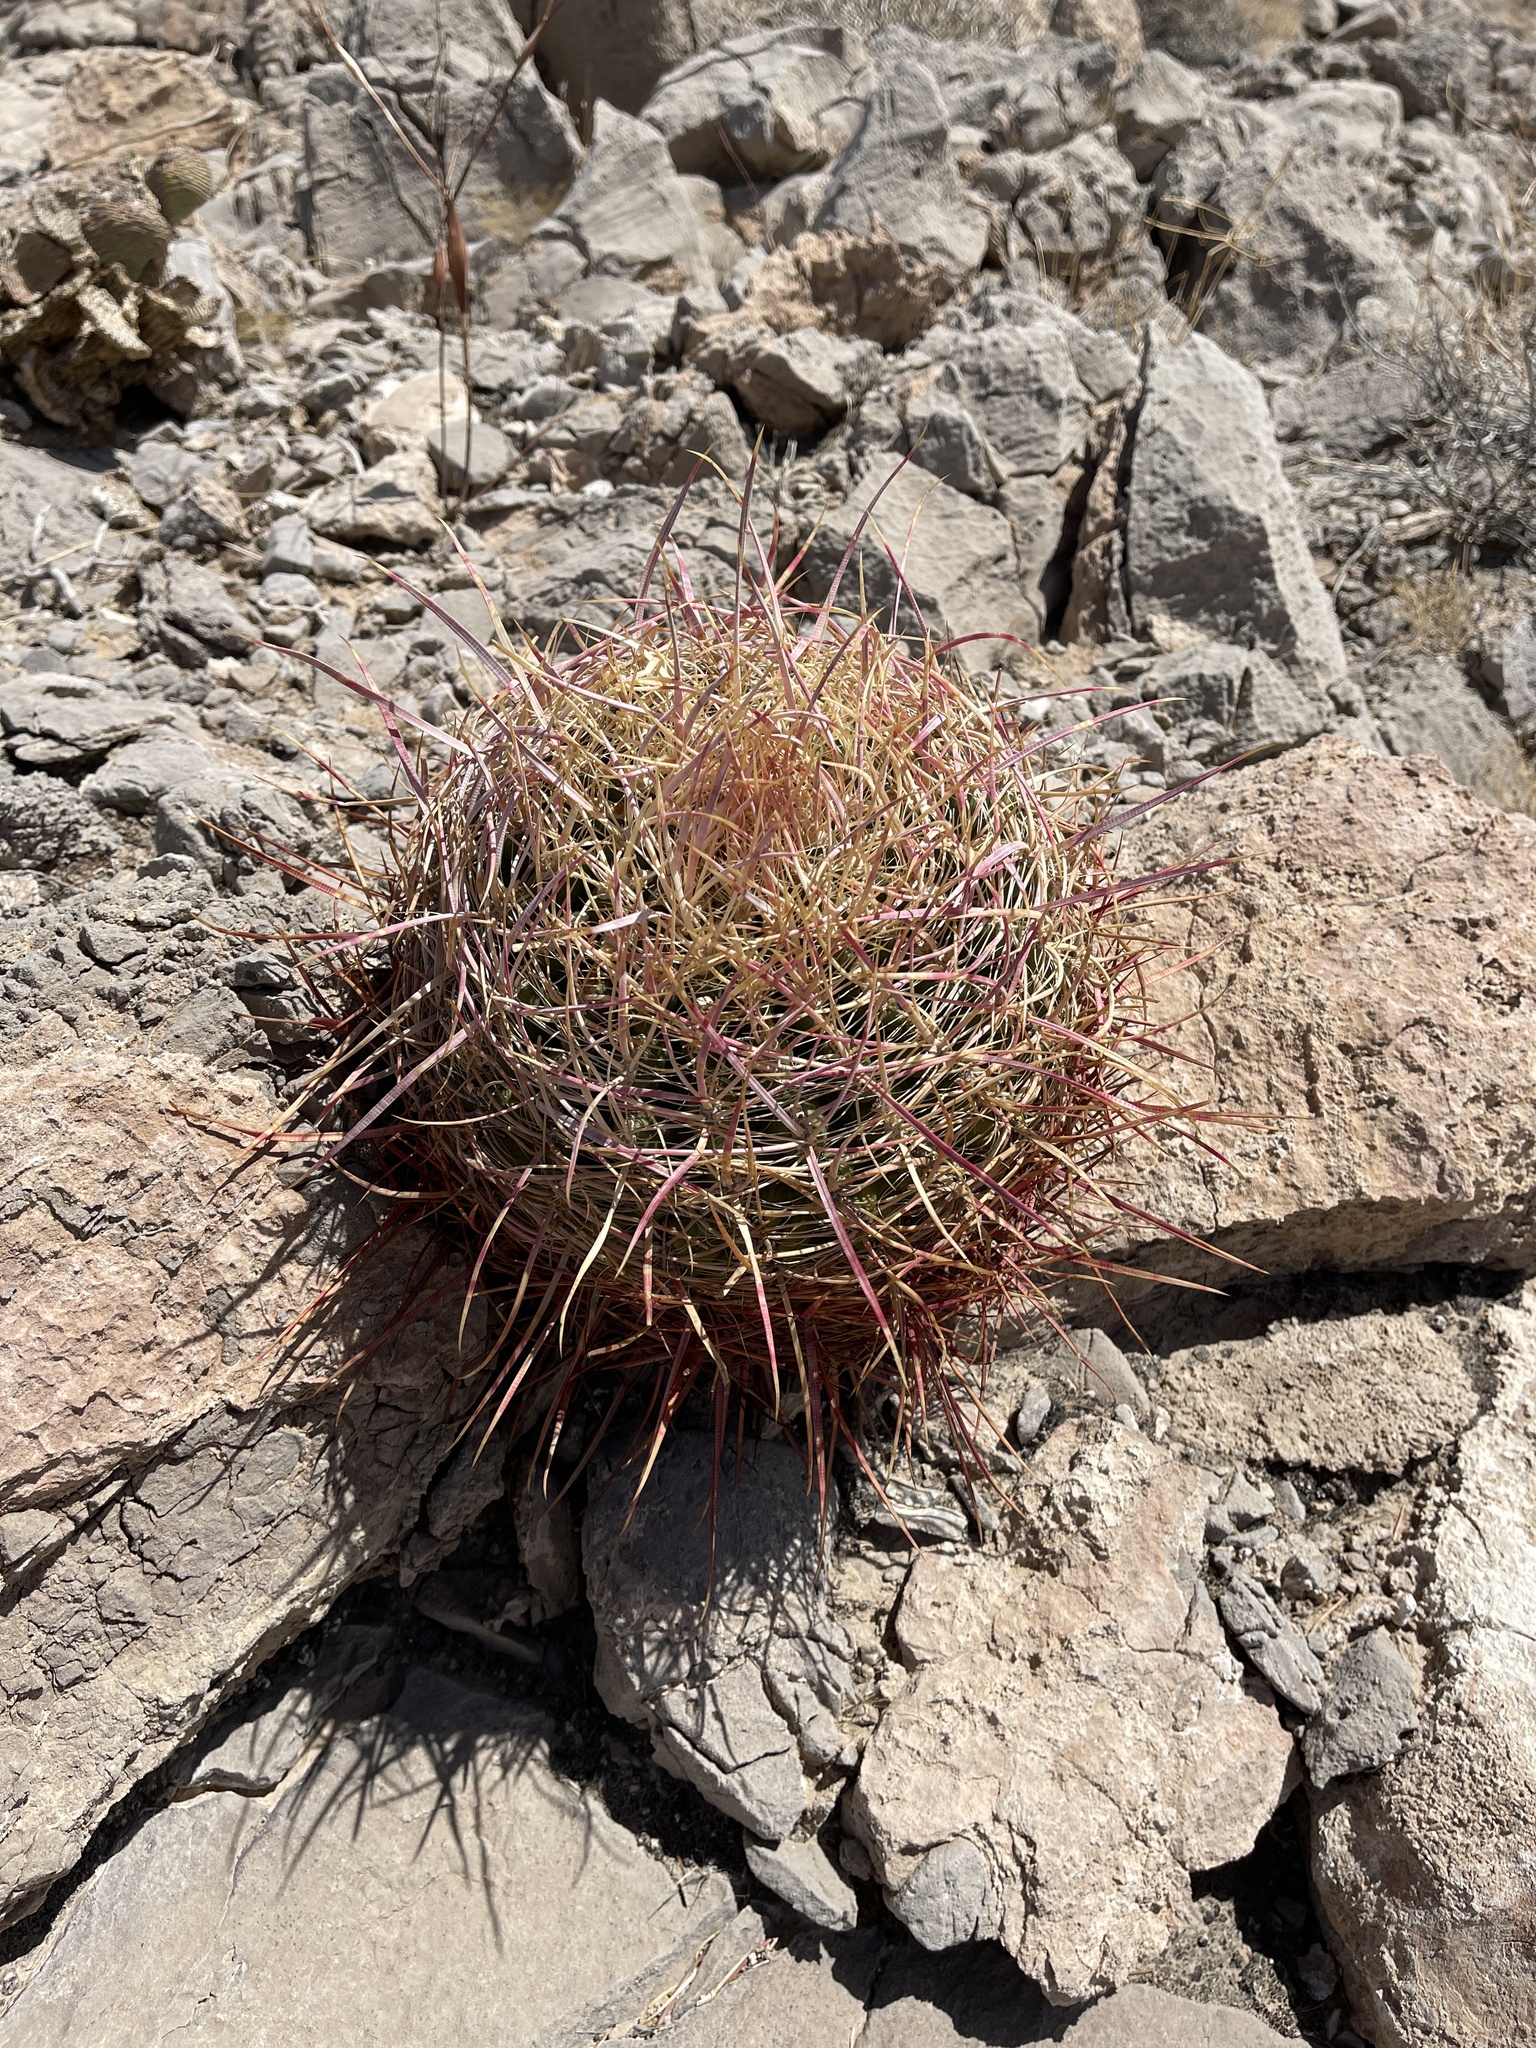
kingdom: Plantae
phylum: Tracheophyta
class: Magnoliopsida
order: Caryophyllales
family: Cactaceae
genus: Ferocactus
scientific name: Ferocactus cylindraceus
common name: California barrel cactus
